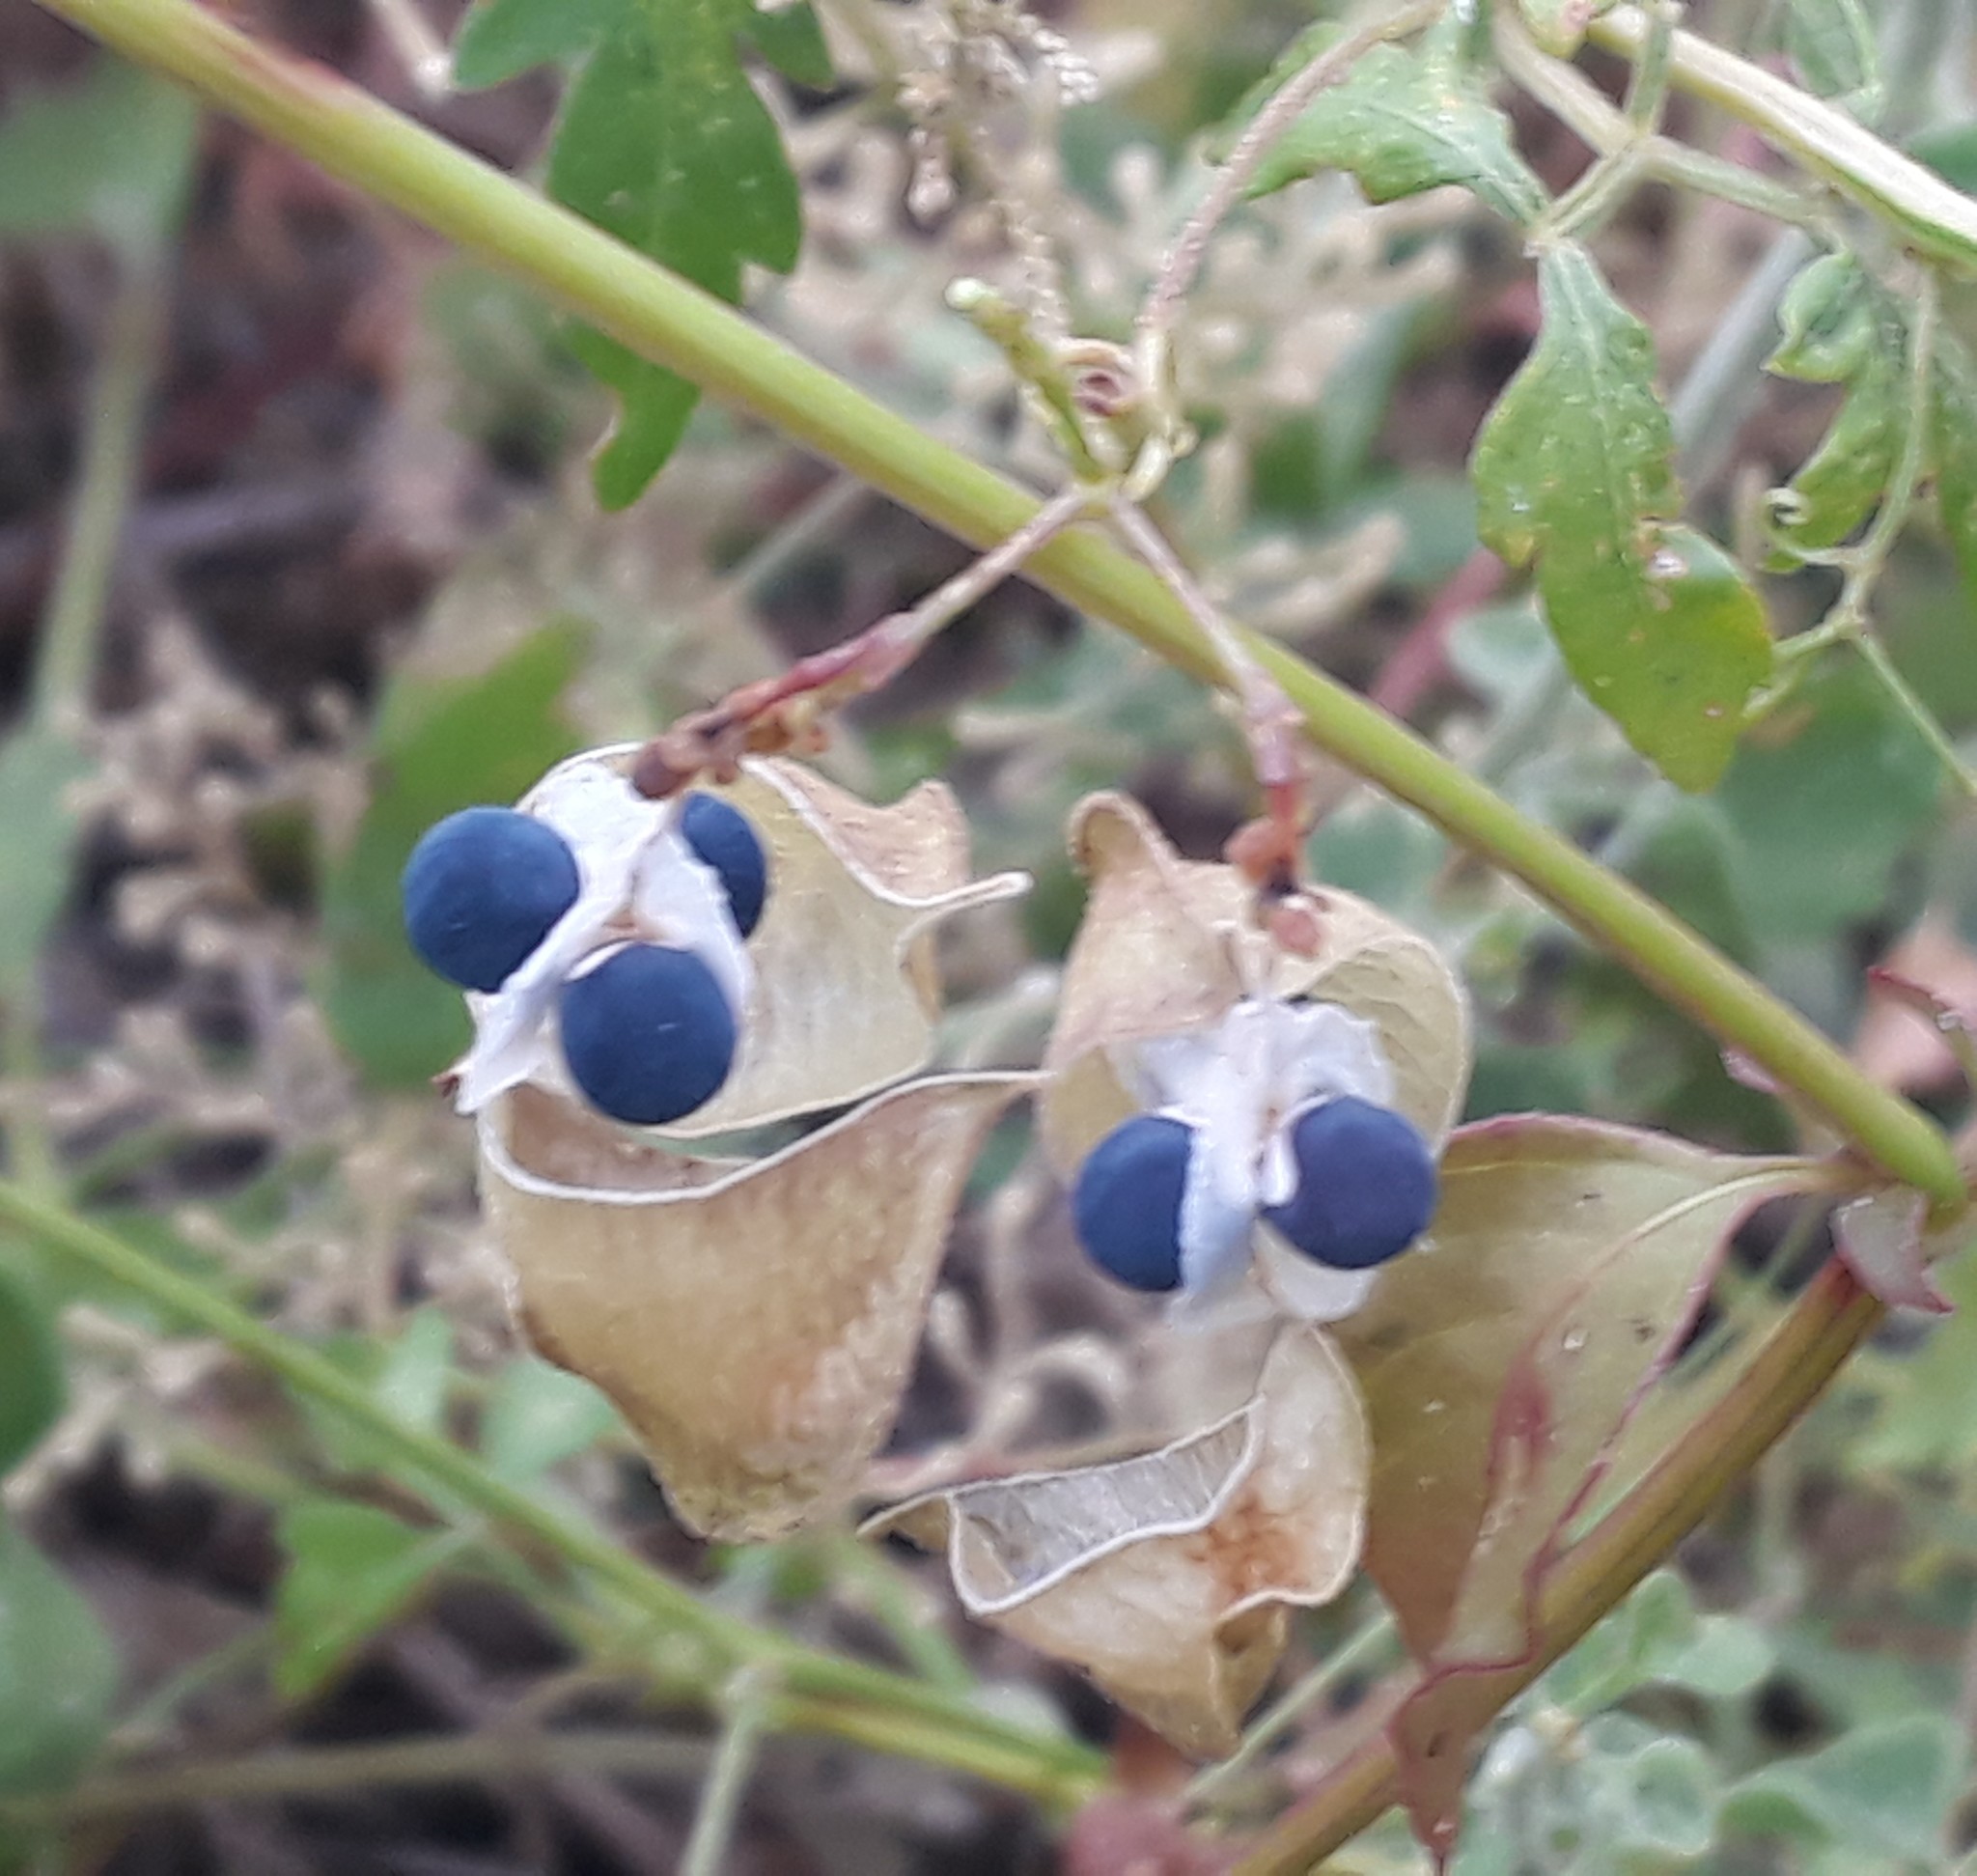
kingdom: Plantae
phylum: Tracheophyta
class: Magnoliopsida
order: Sapindales
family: Sapindaceae
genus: Cardiospermum
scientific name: Cardiospermum halicacabum
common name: Balloon vine
